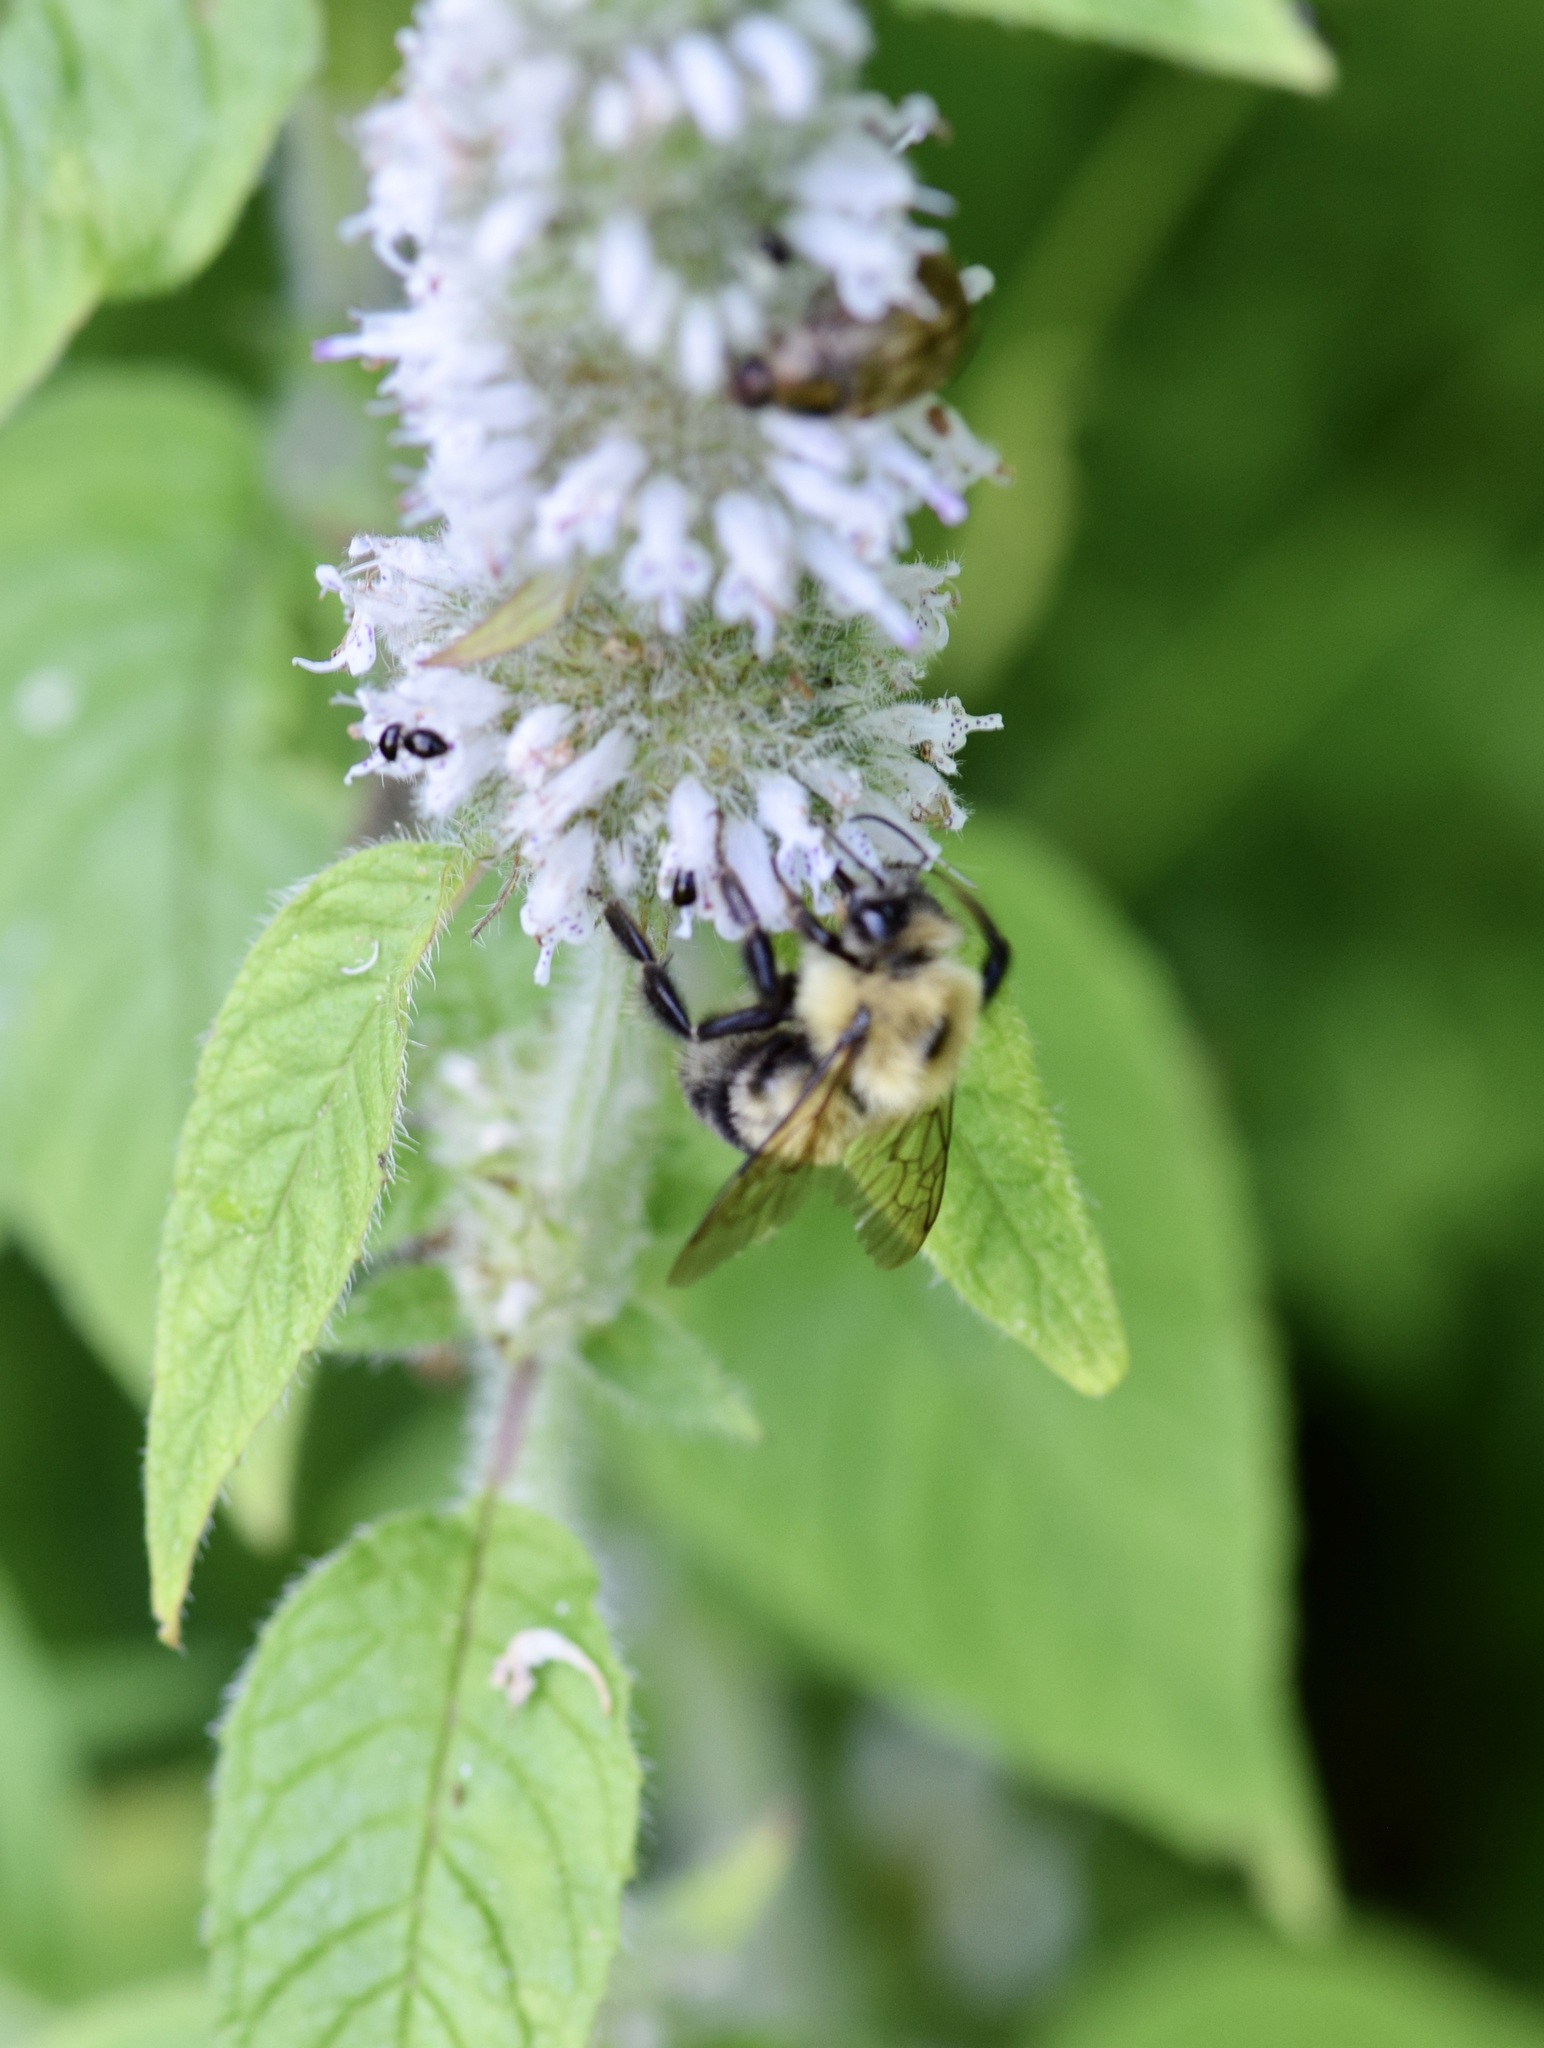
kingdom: Animalia
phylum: Arthropoda
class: Insecta
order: Hymenoptera
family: Apidae
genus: Bombus
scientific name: Bombus bimaculatus
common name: Two-spotted bumble bee
